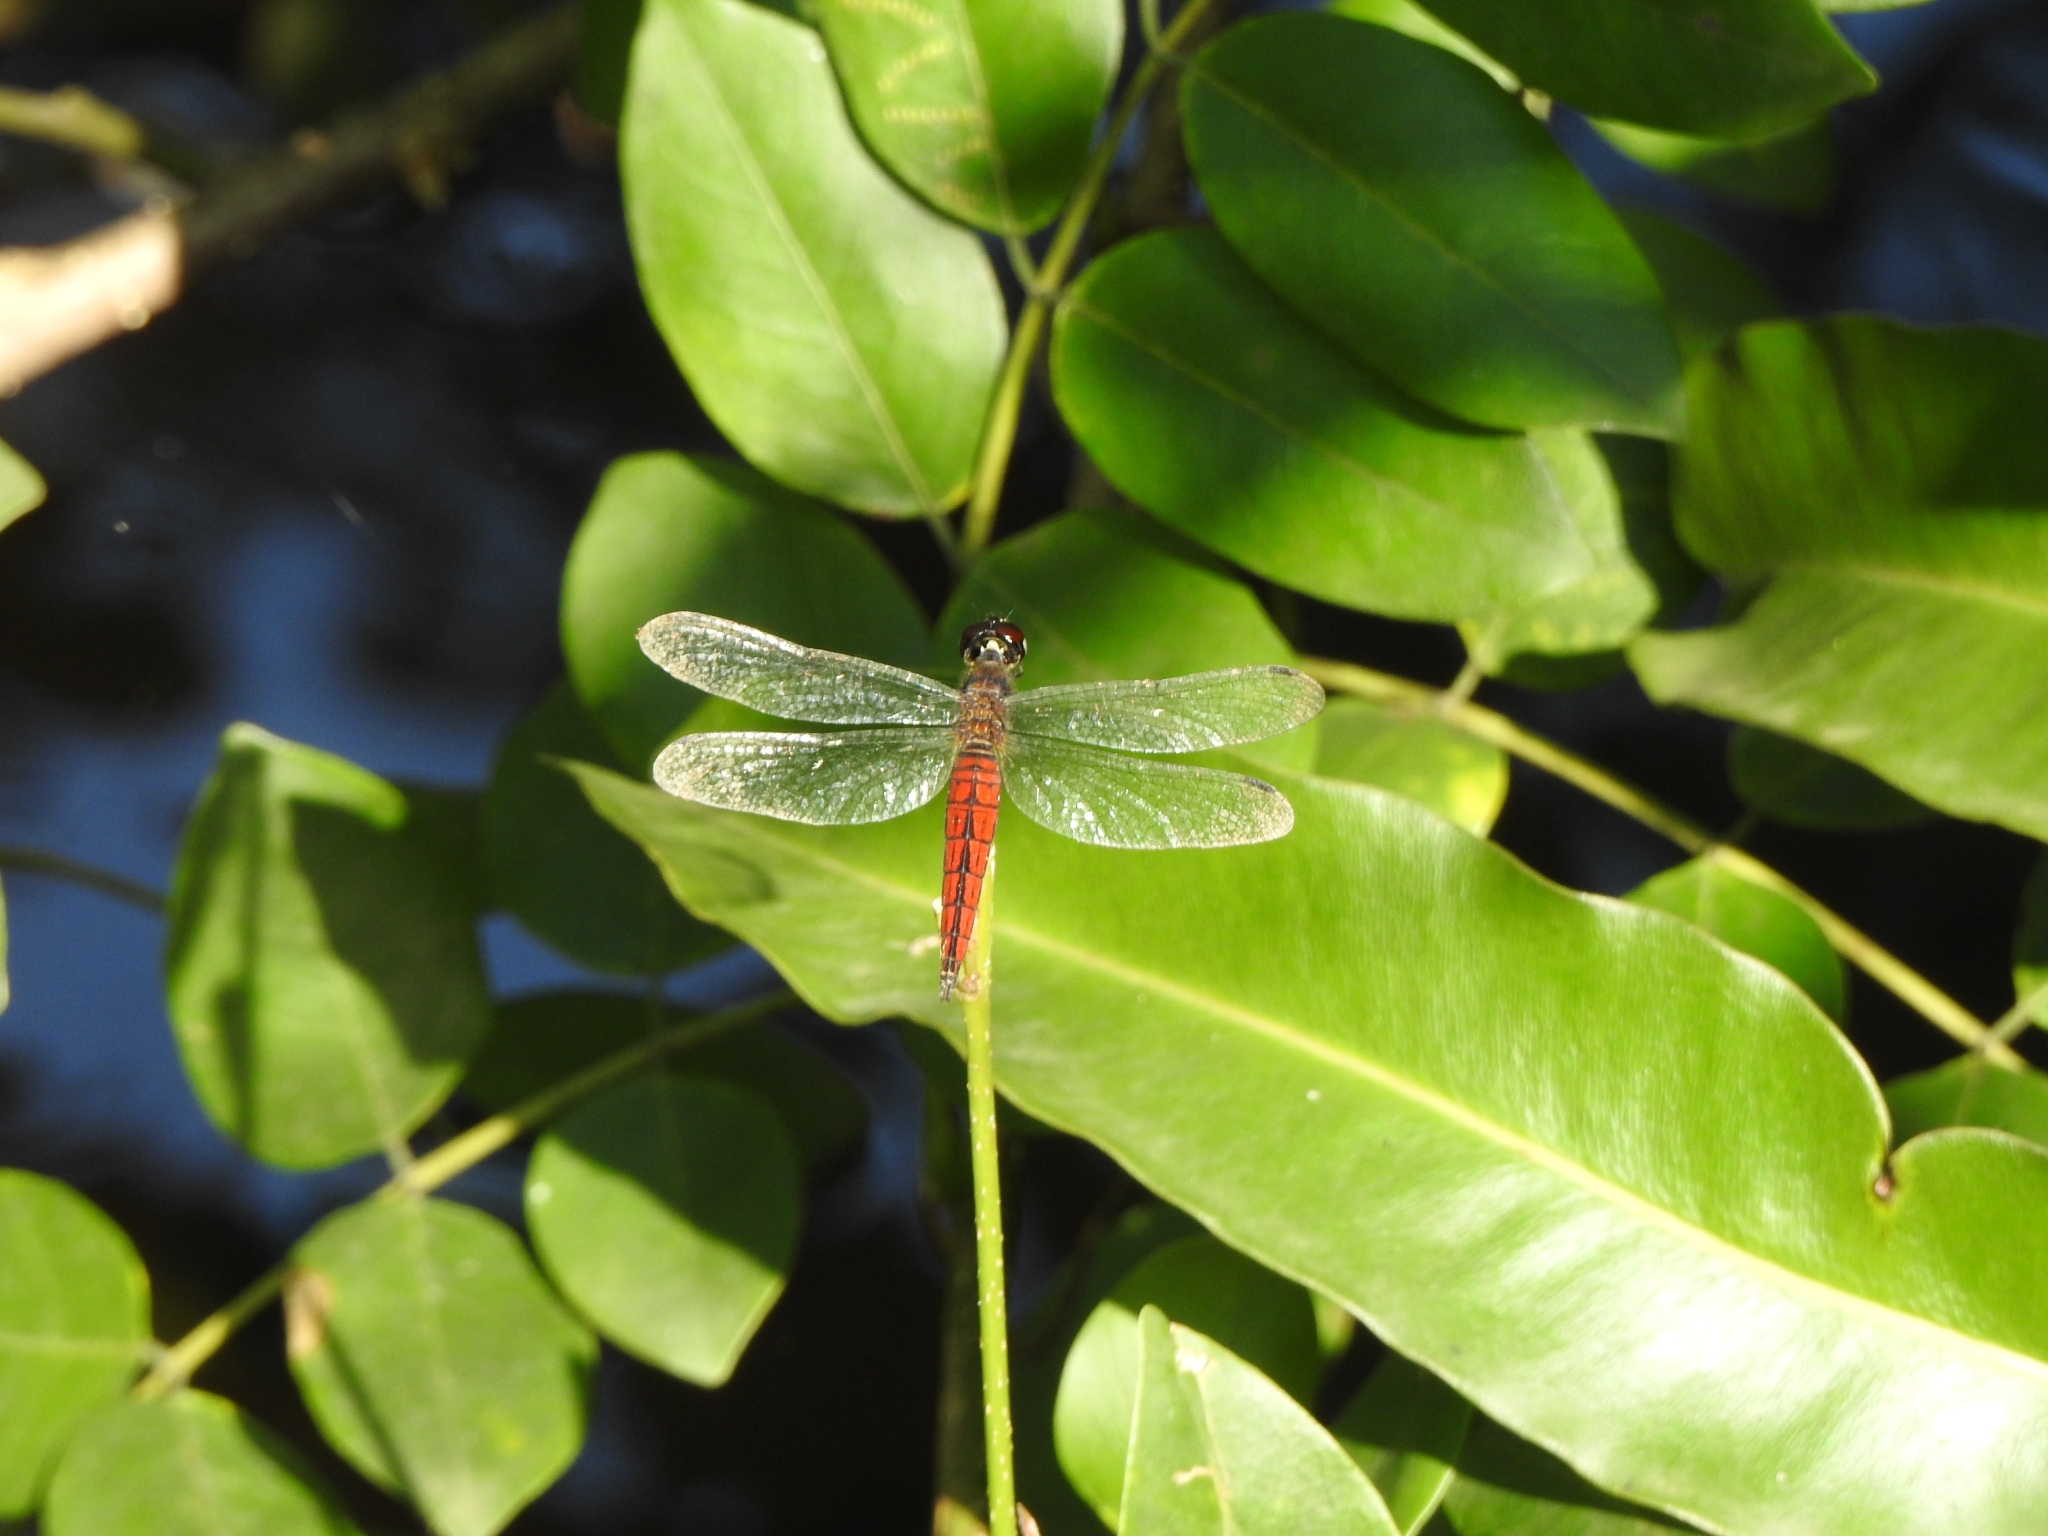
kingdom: Animalia
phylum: Arthropoda
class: Insecta
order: Odonata
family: Libellulidae
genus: Lyriothemis
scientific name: Lyriothemis acigastra
